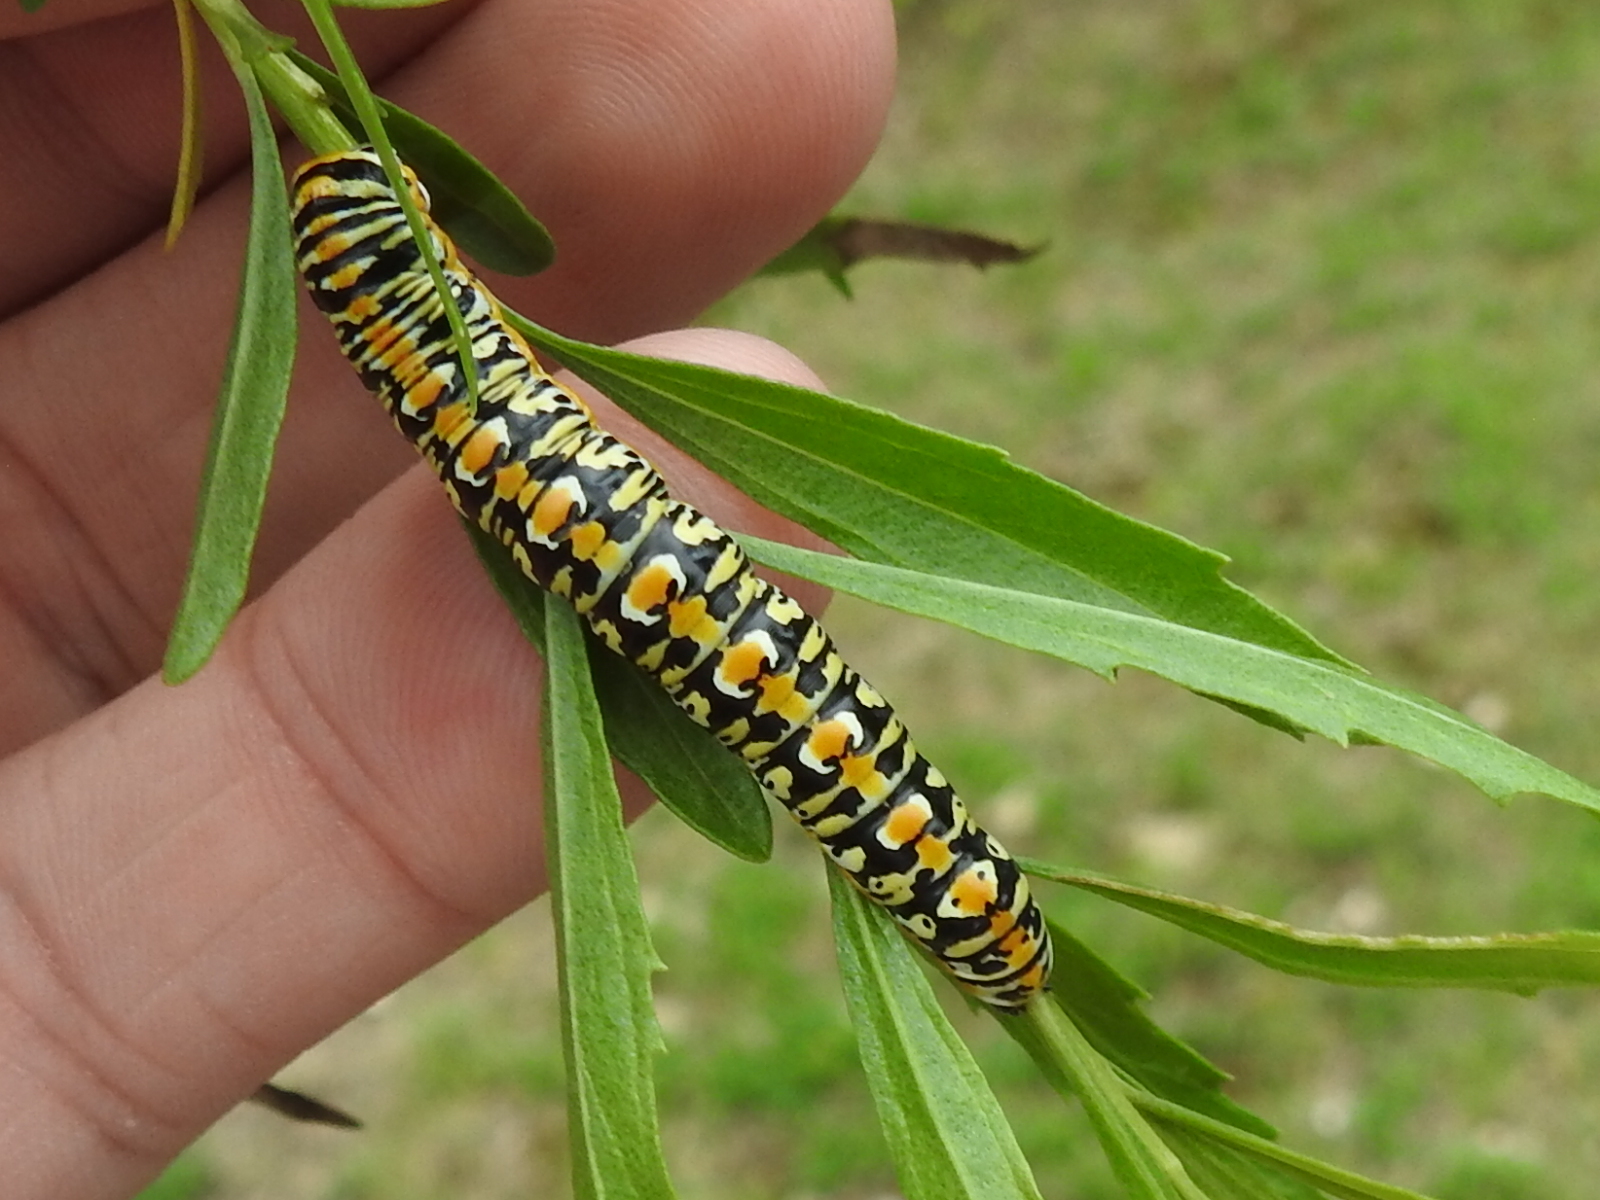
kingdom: Animalia
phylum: Arthropoda
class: Insecta
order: Lepidoptera
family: Noctuidae
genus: Cucullia
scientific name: Cucullia laetifica
